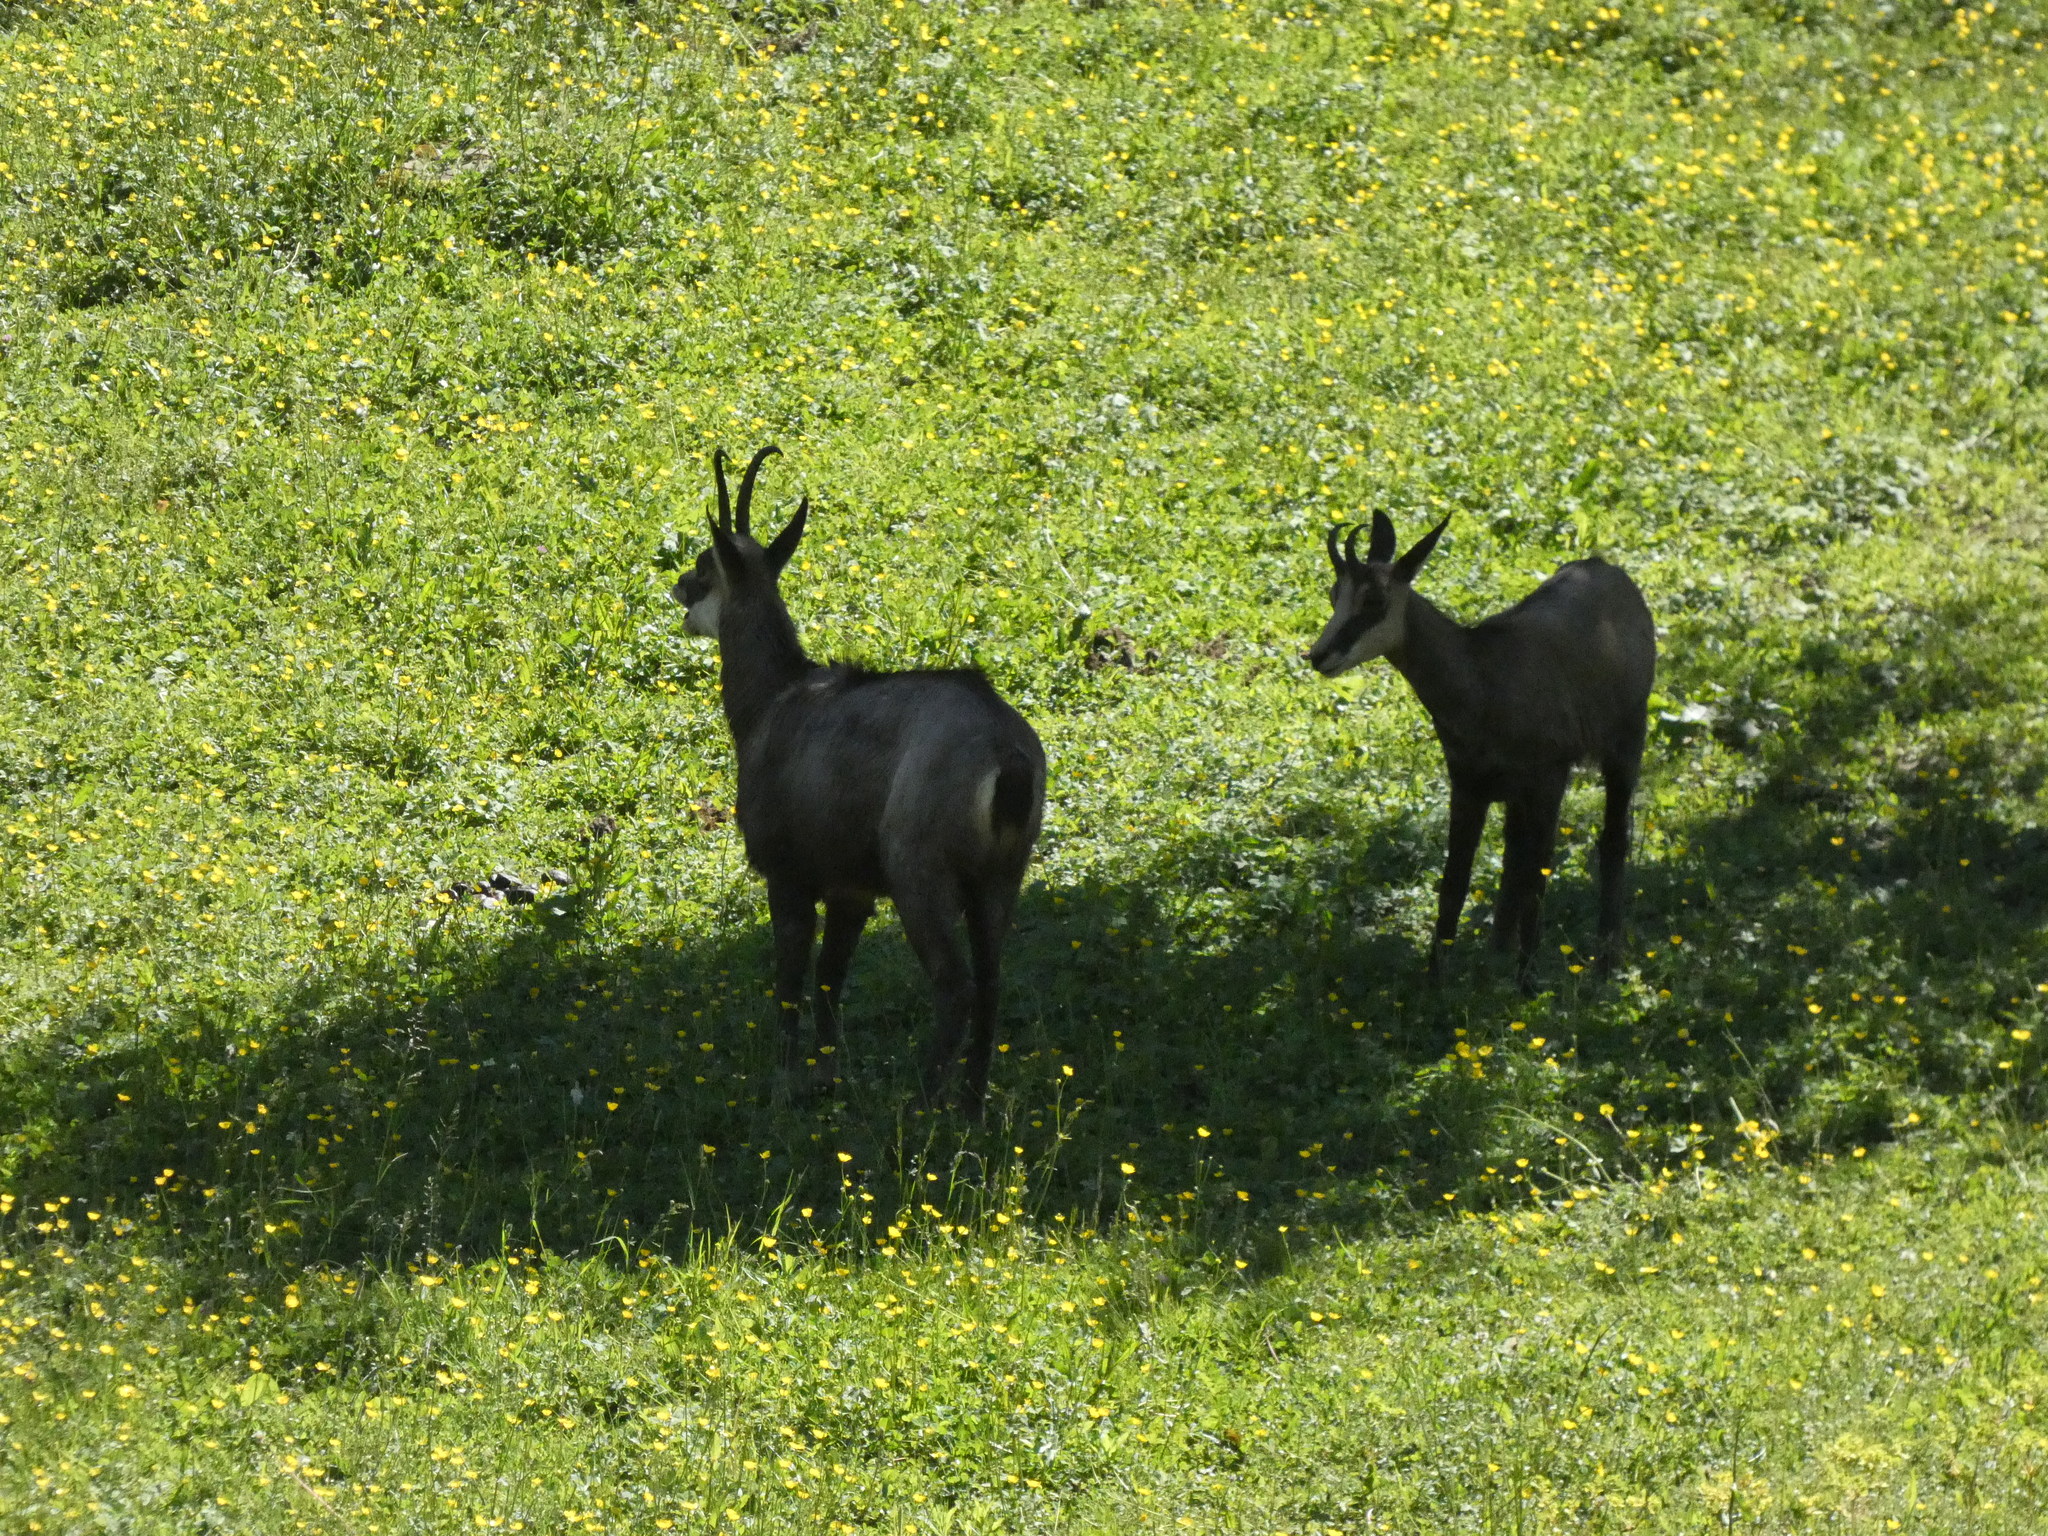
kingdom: Animalia
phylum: Chordata
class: Mammalia
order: Artiodactyla
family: Bovidae
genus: Rupicapra
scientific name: Rupicapra rupicapra
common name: Chamois
